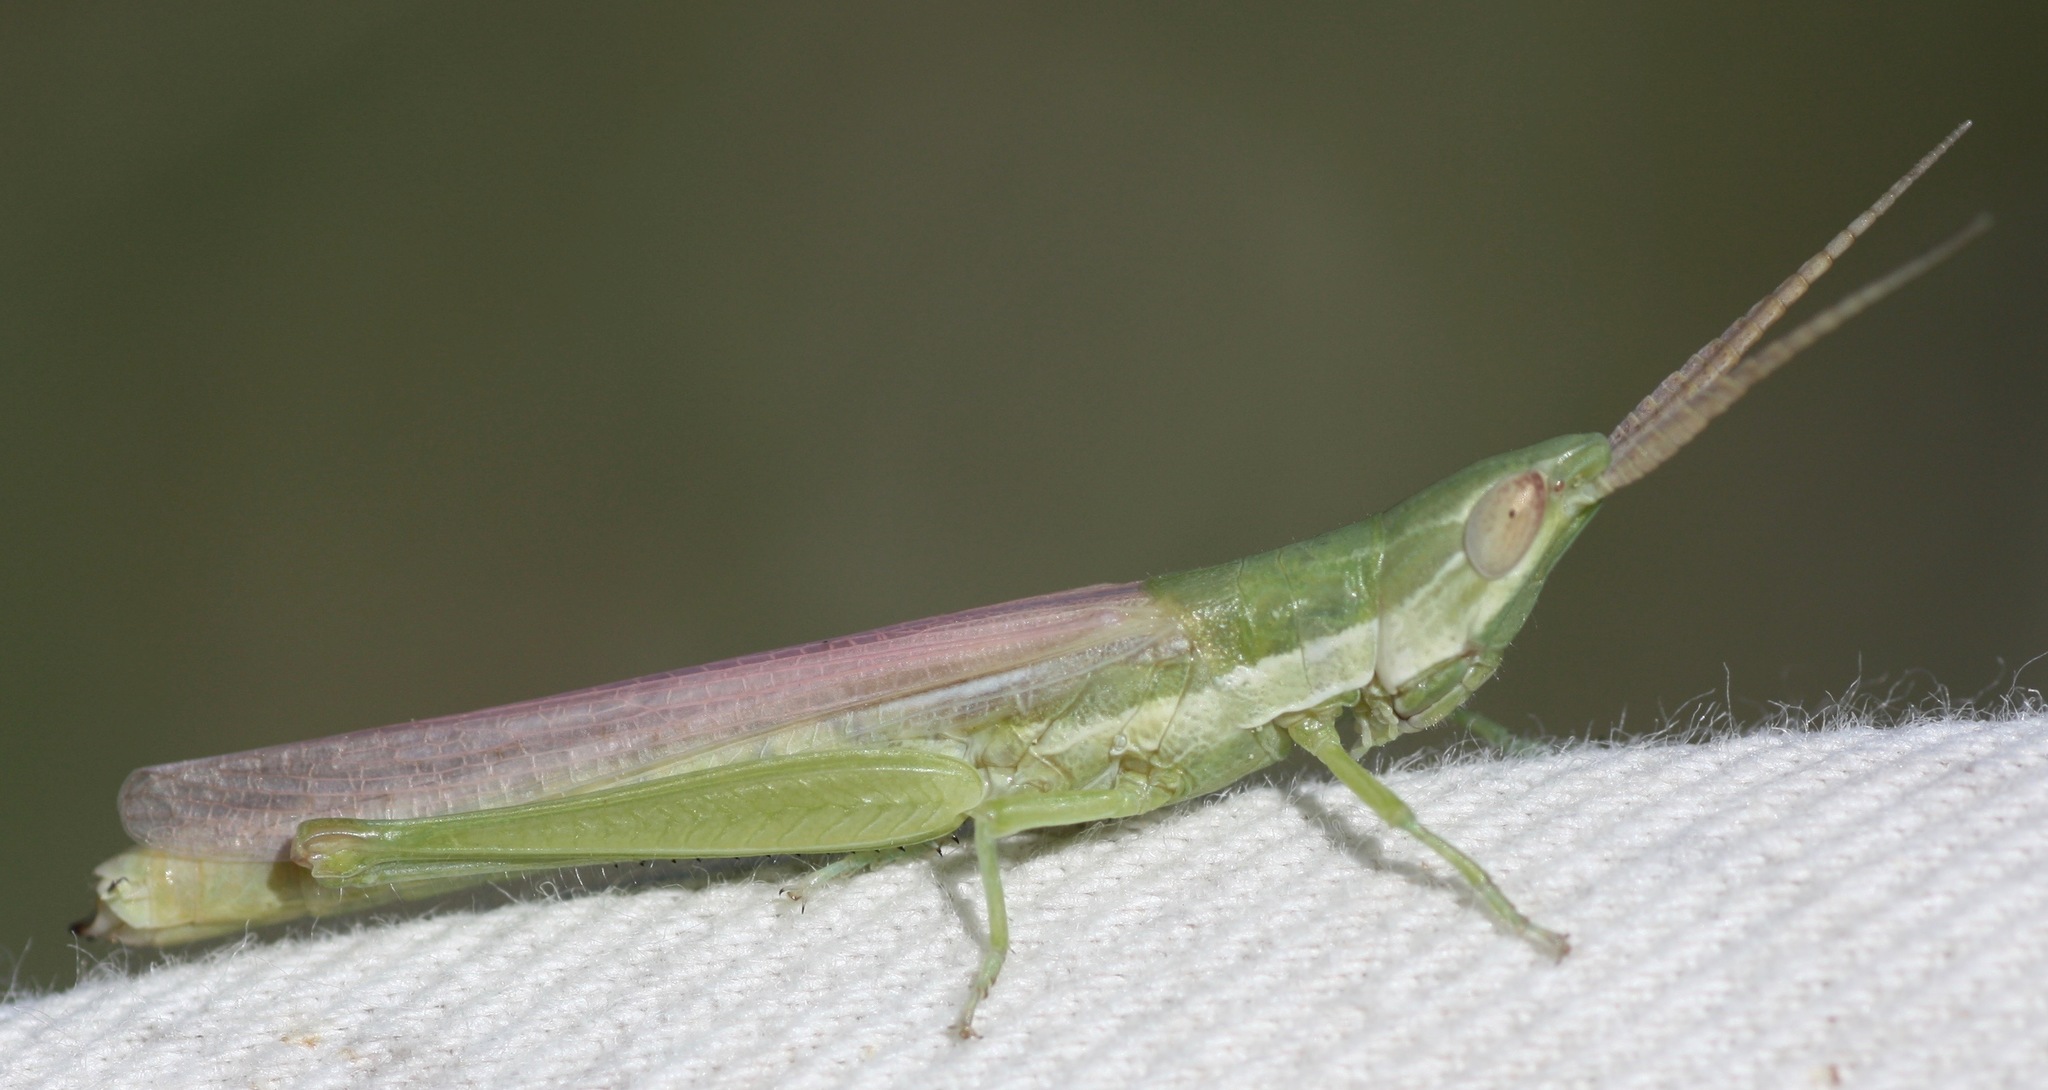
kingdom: Animalia
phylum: Arthropoda
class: Insecta
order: Orthoptera
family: Acrididae
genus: Paropomala
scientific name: Paropomala pallida
